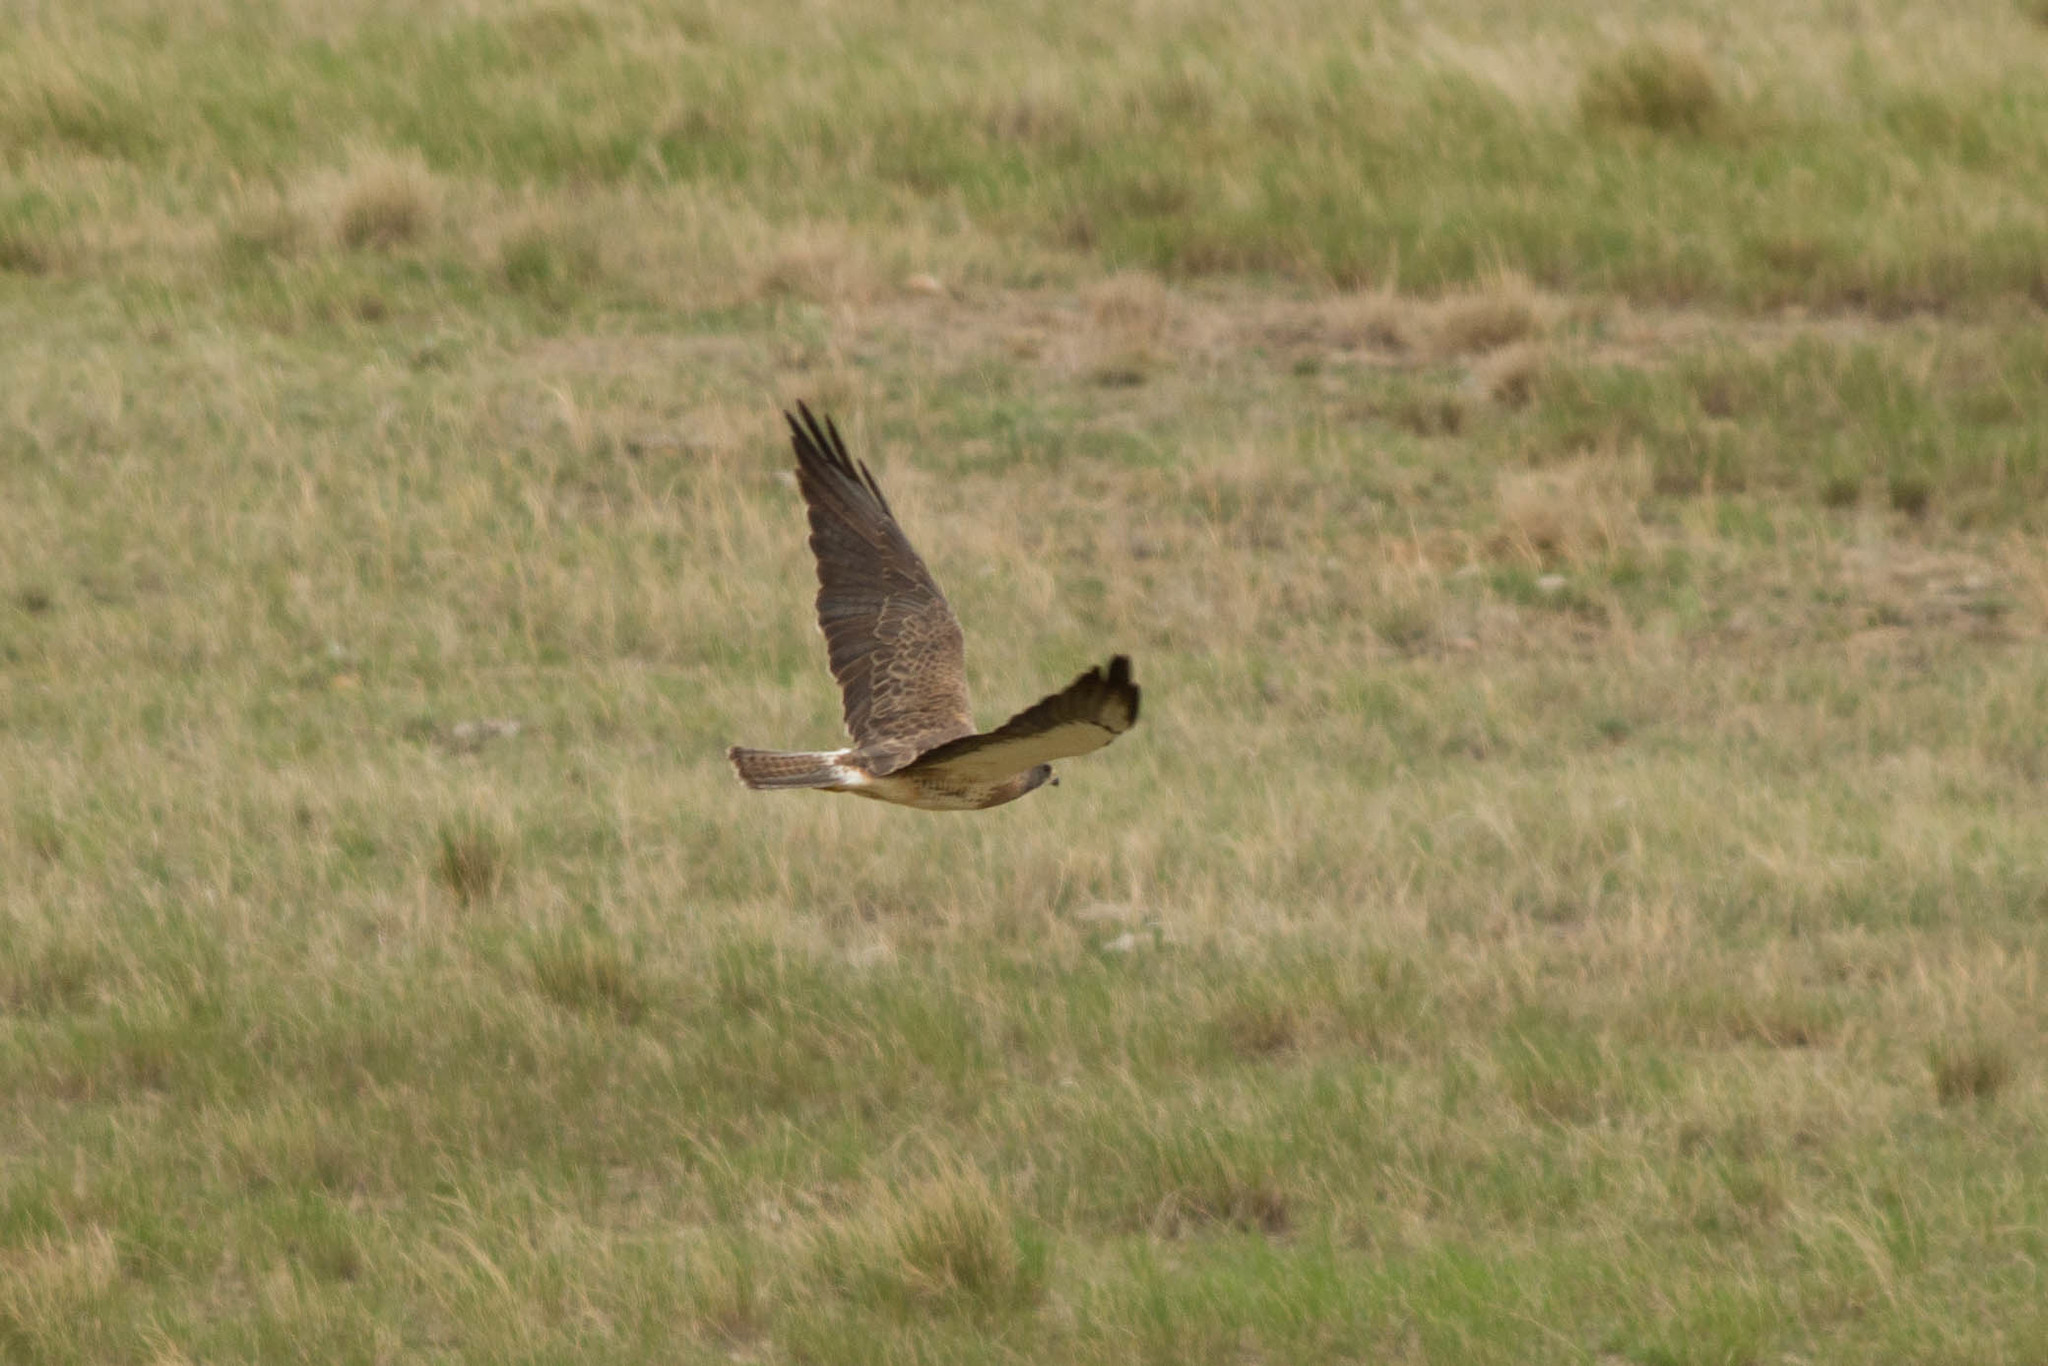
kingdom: Animalia
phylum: Chordata
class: Aves
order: Accipitriformes
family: Accipitridae
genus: Buteo
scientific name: Buteo swainsoni
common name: Swainson's hawk
